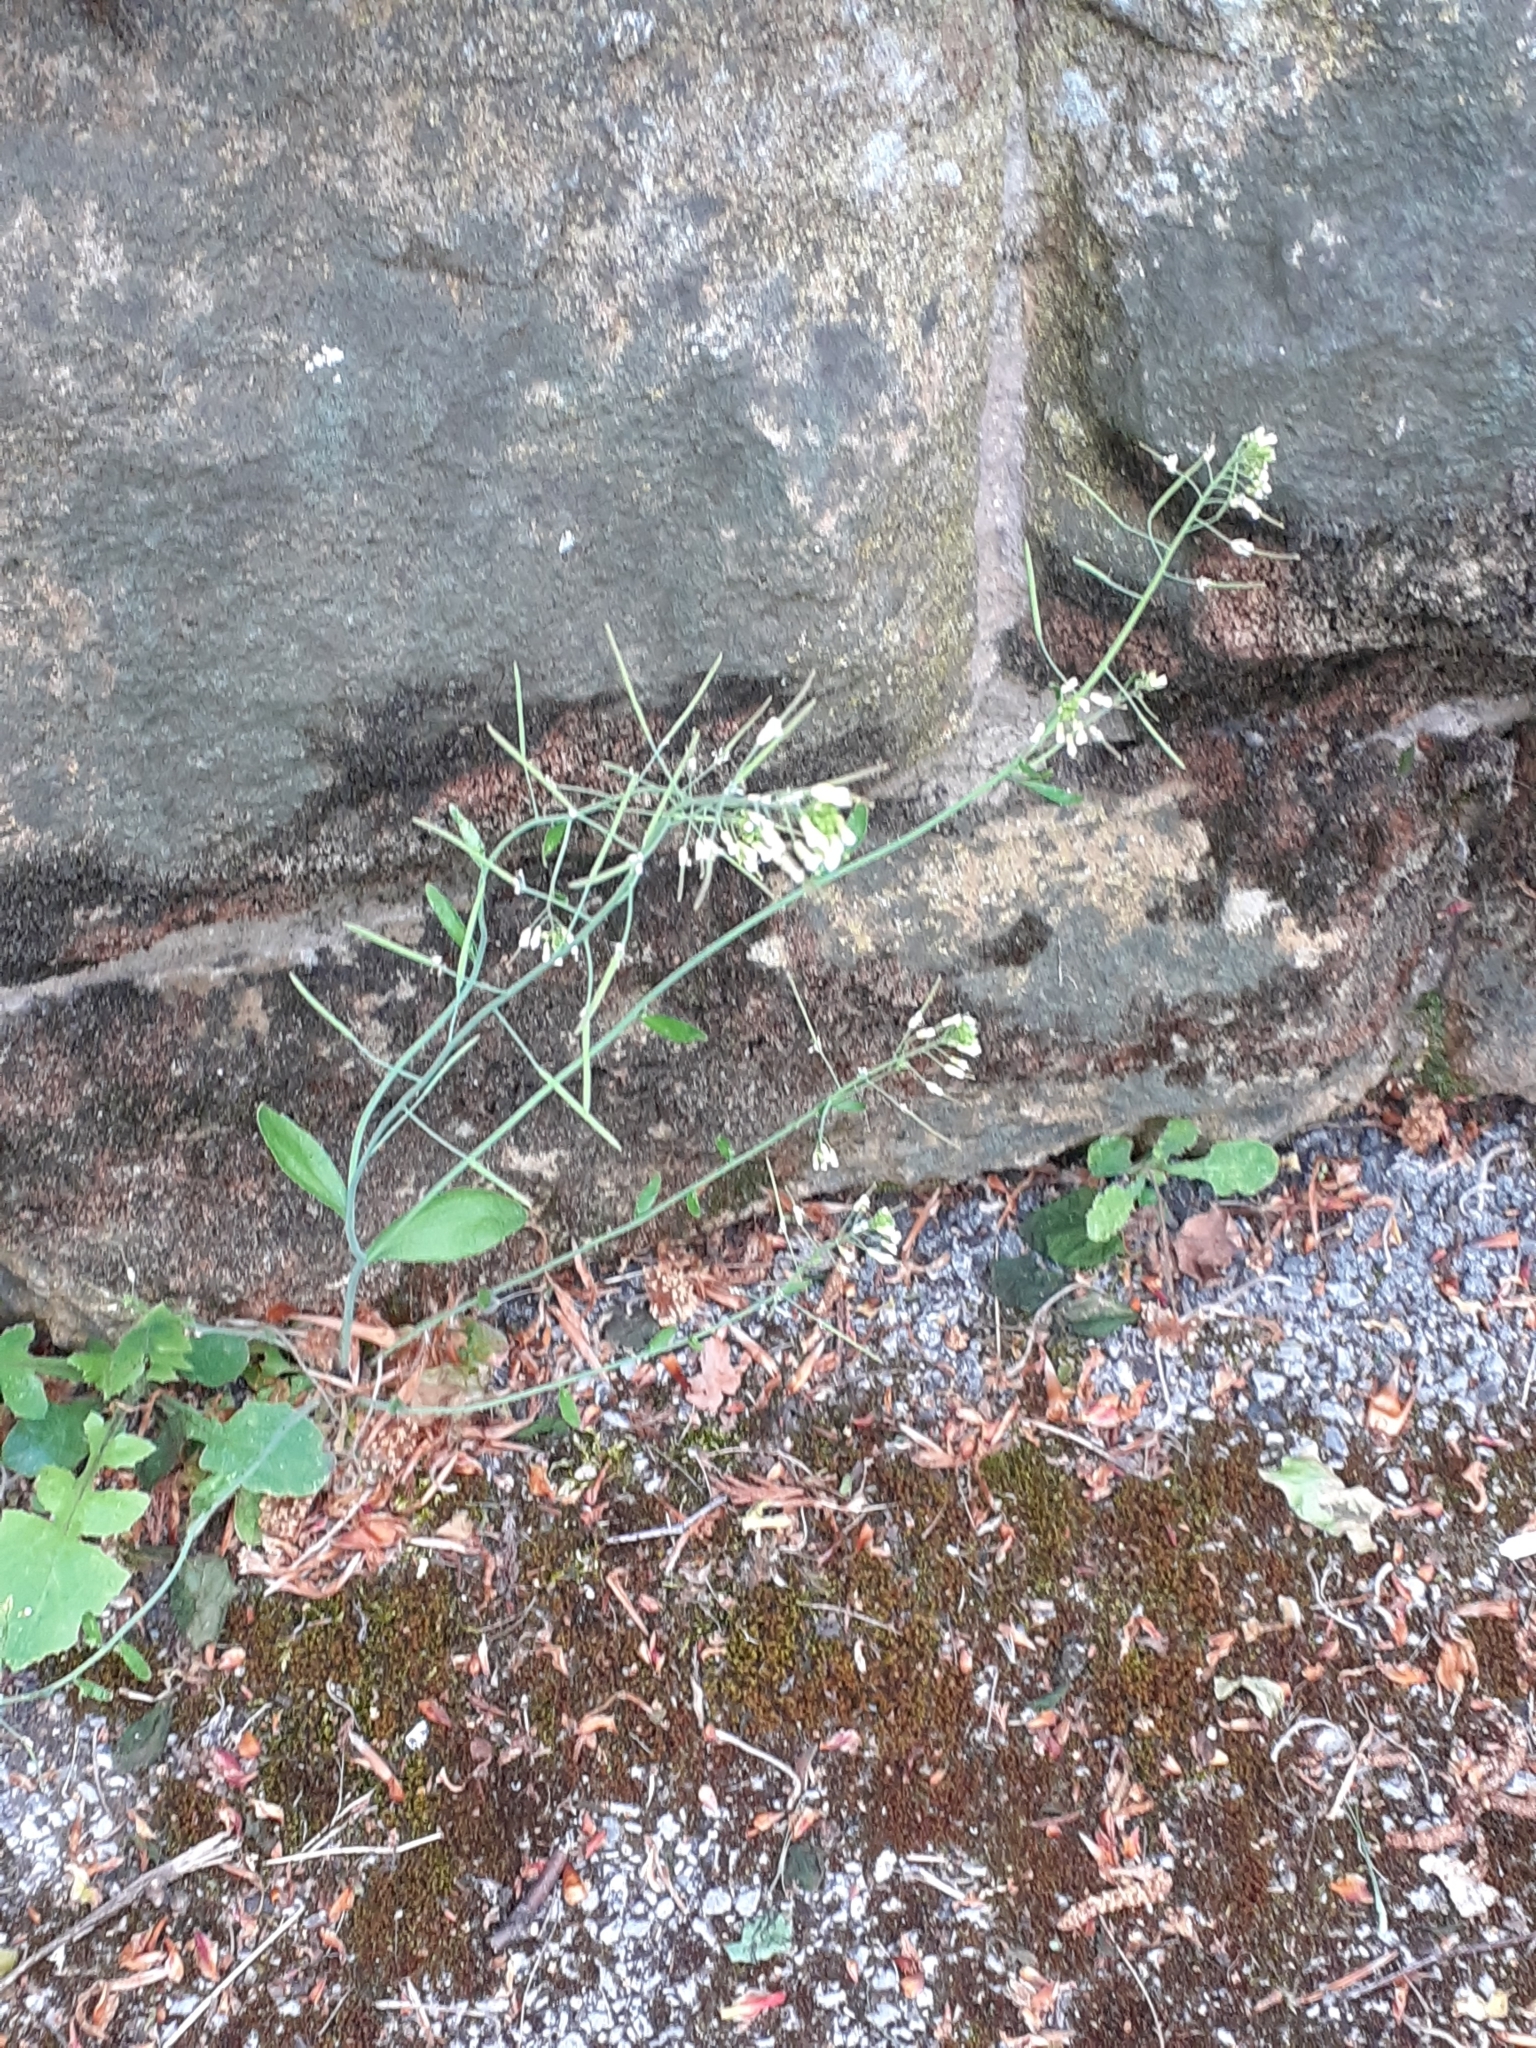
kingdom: Plantae
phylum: Tracheophyta
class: Magnoliopsida
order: Brassicales
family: Brassicaceae
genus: Arabidopsis
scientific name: Arabidopsis thaliana
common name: Thale cress
